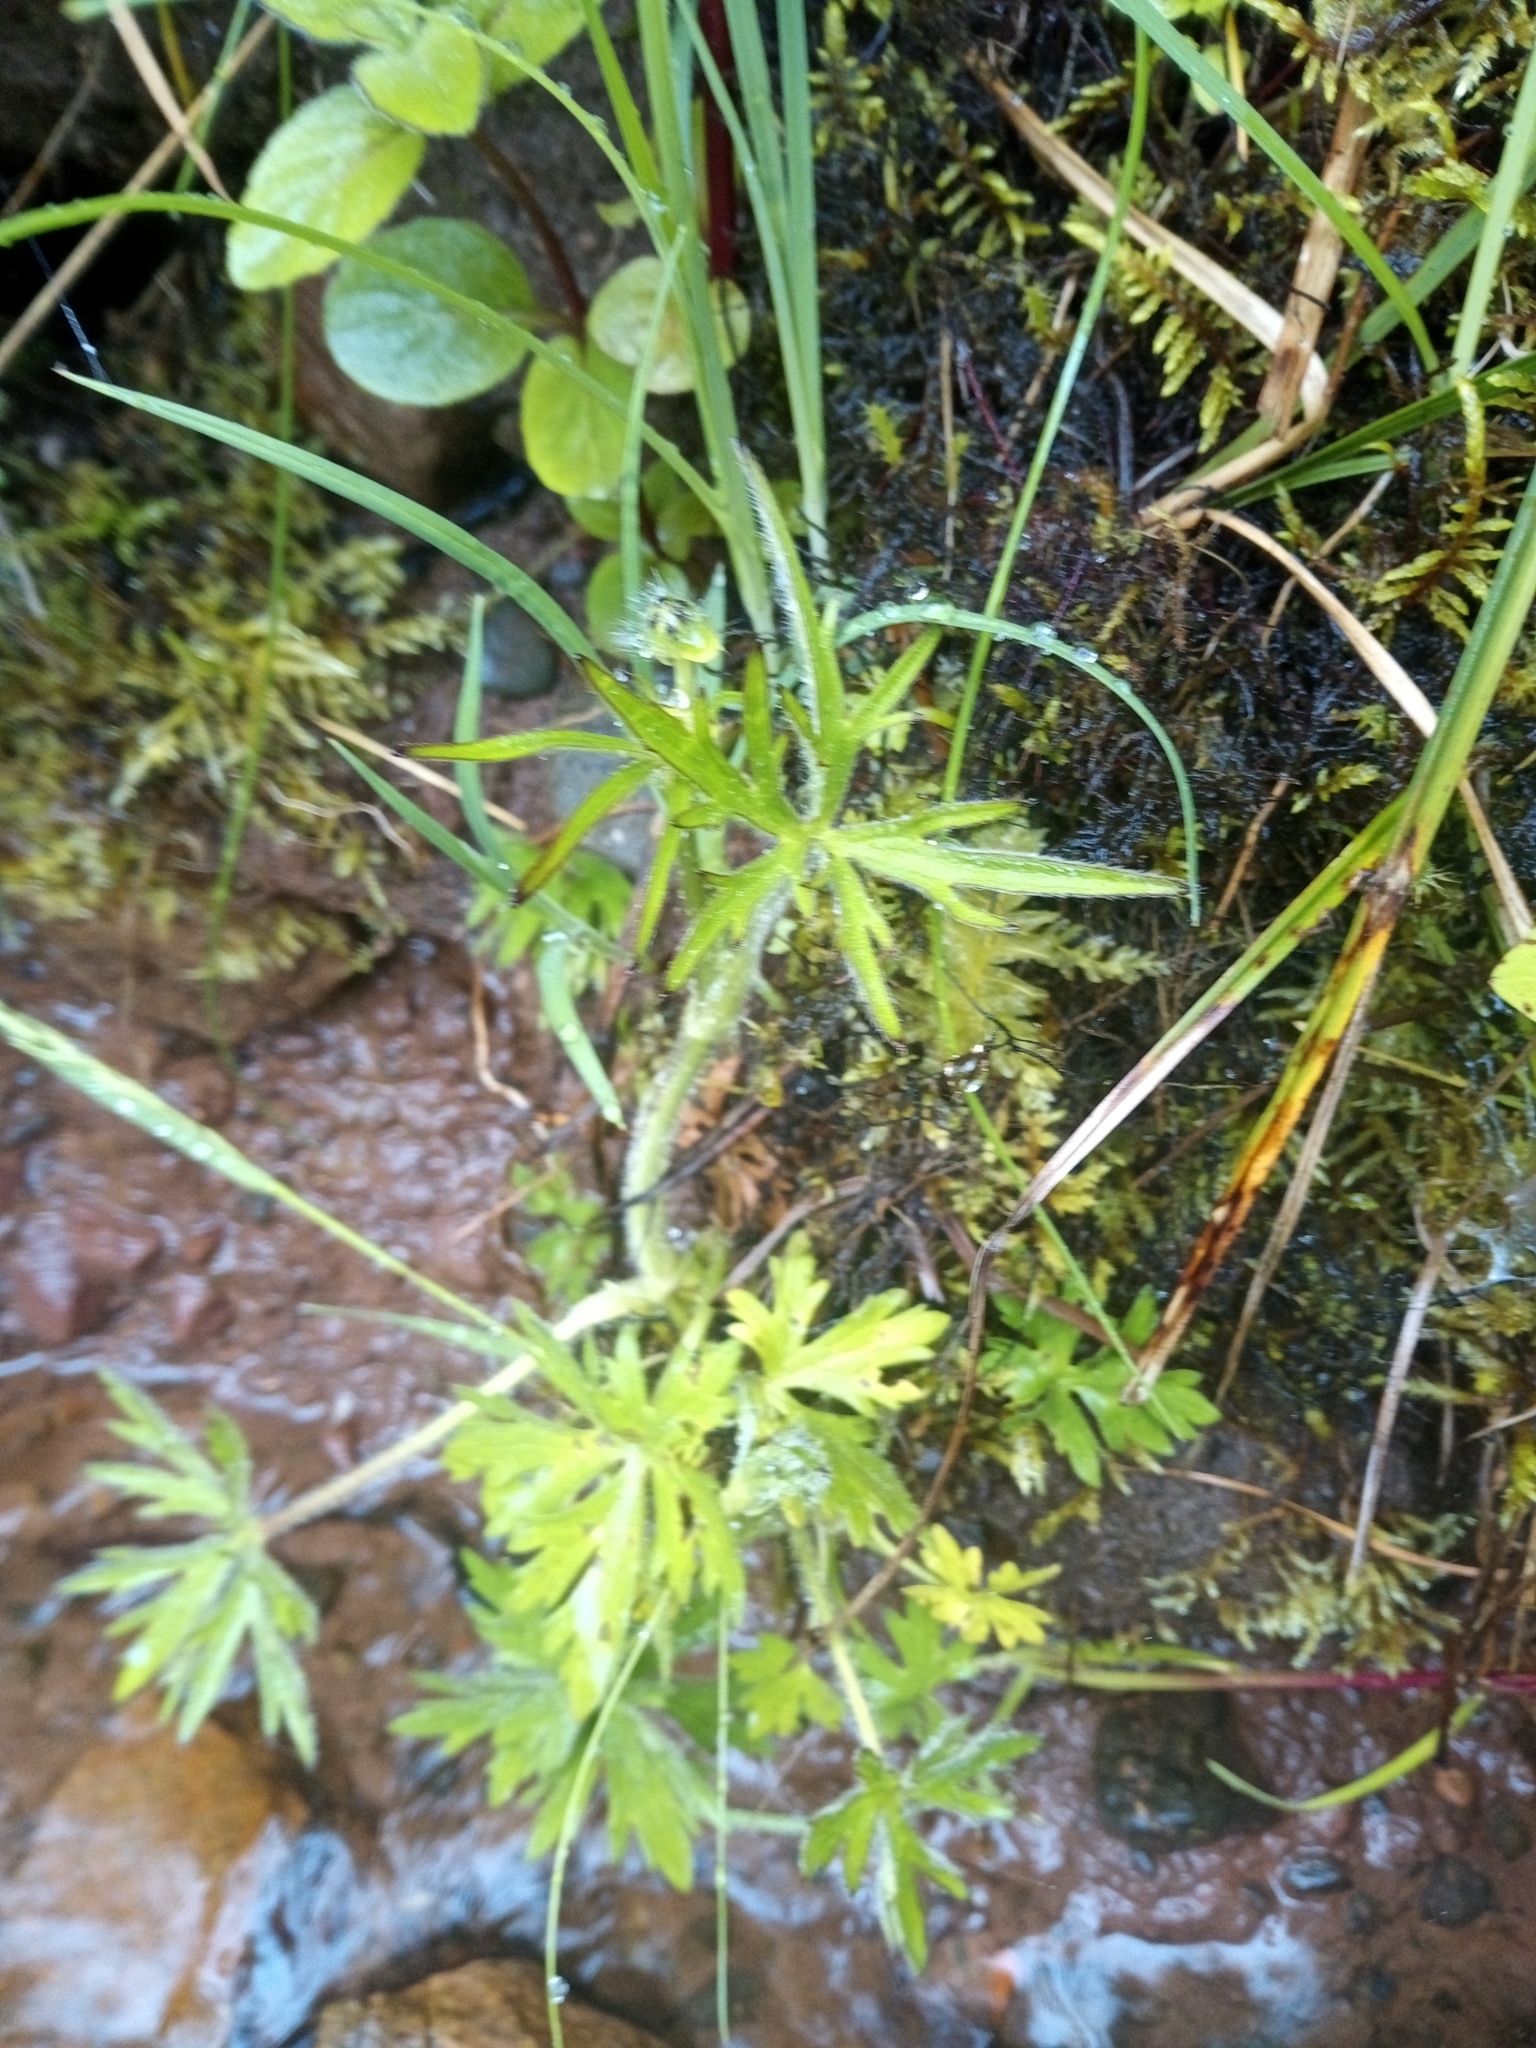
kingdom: Plantae
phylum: Tracheophyta
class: Magnoliopsida
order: Ranunculales
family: Ranunculaceae
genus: Ranunculus
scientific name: Ranunculus acris
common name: Meadow buttercup
